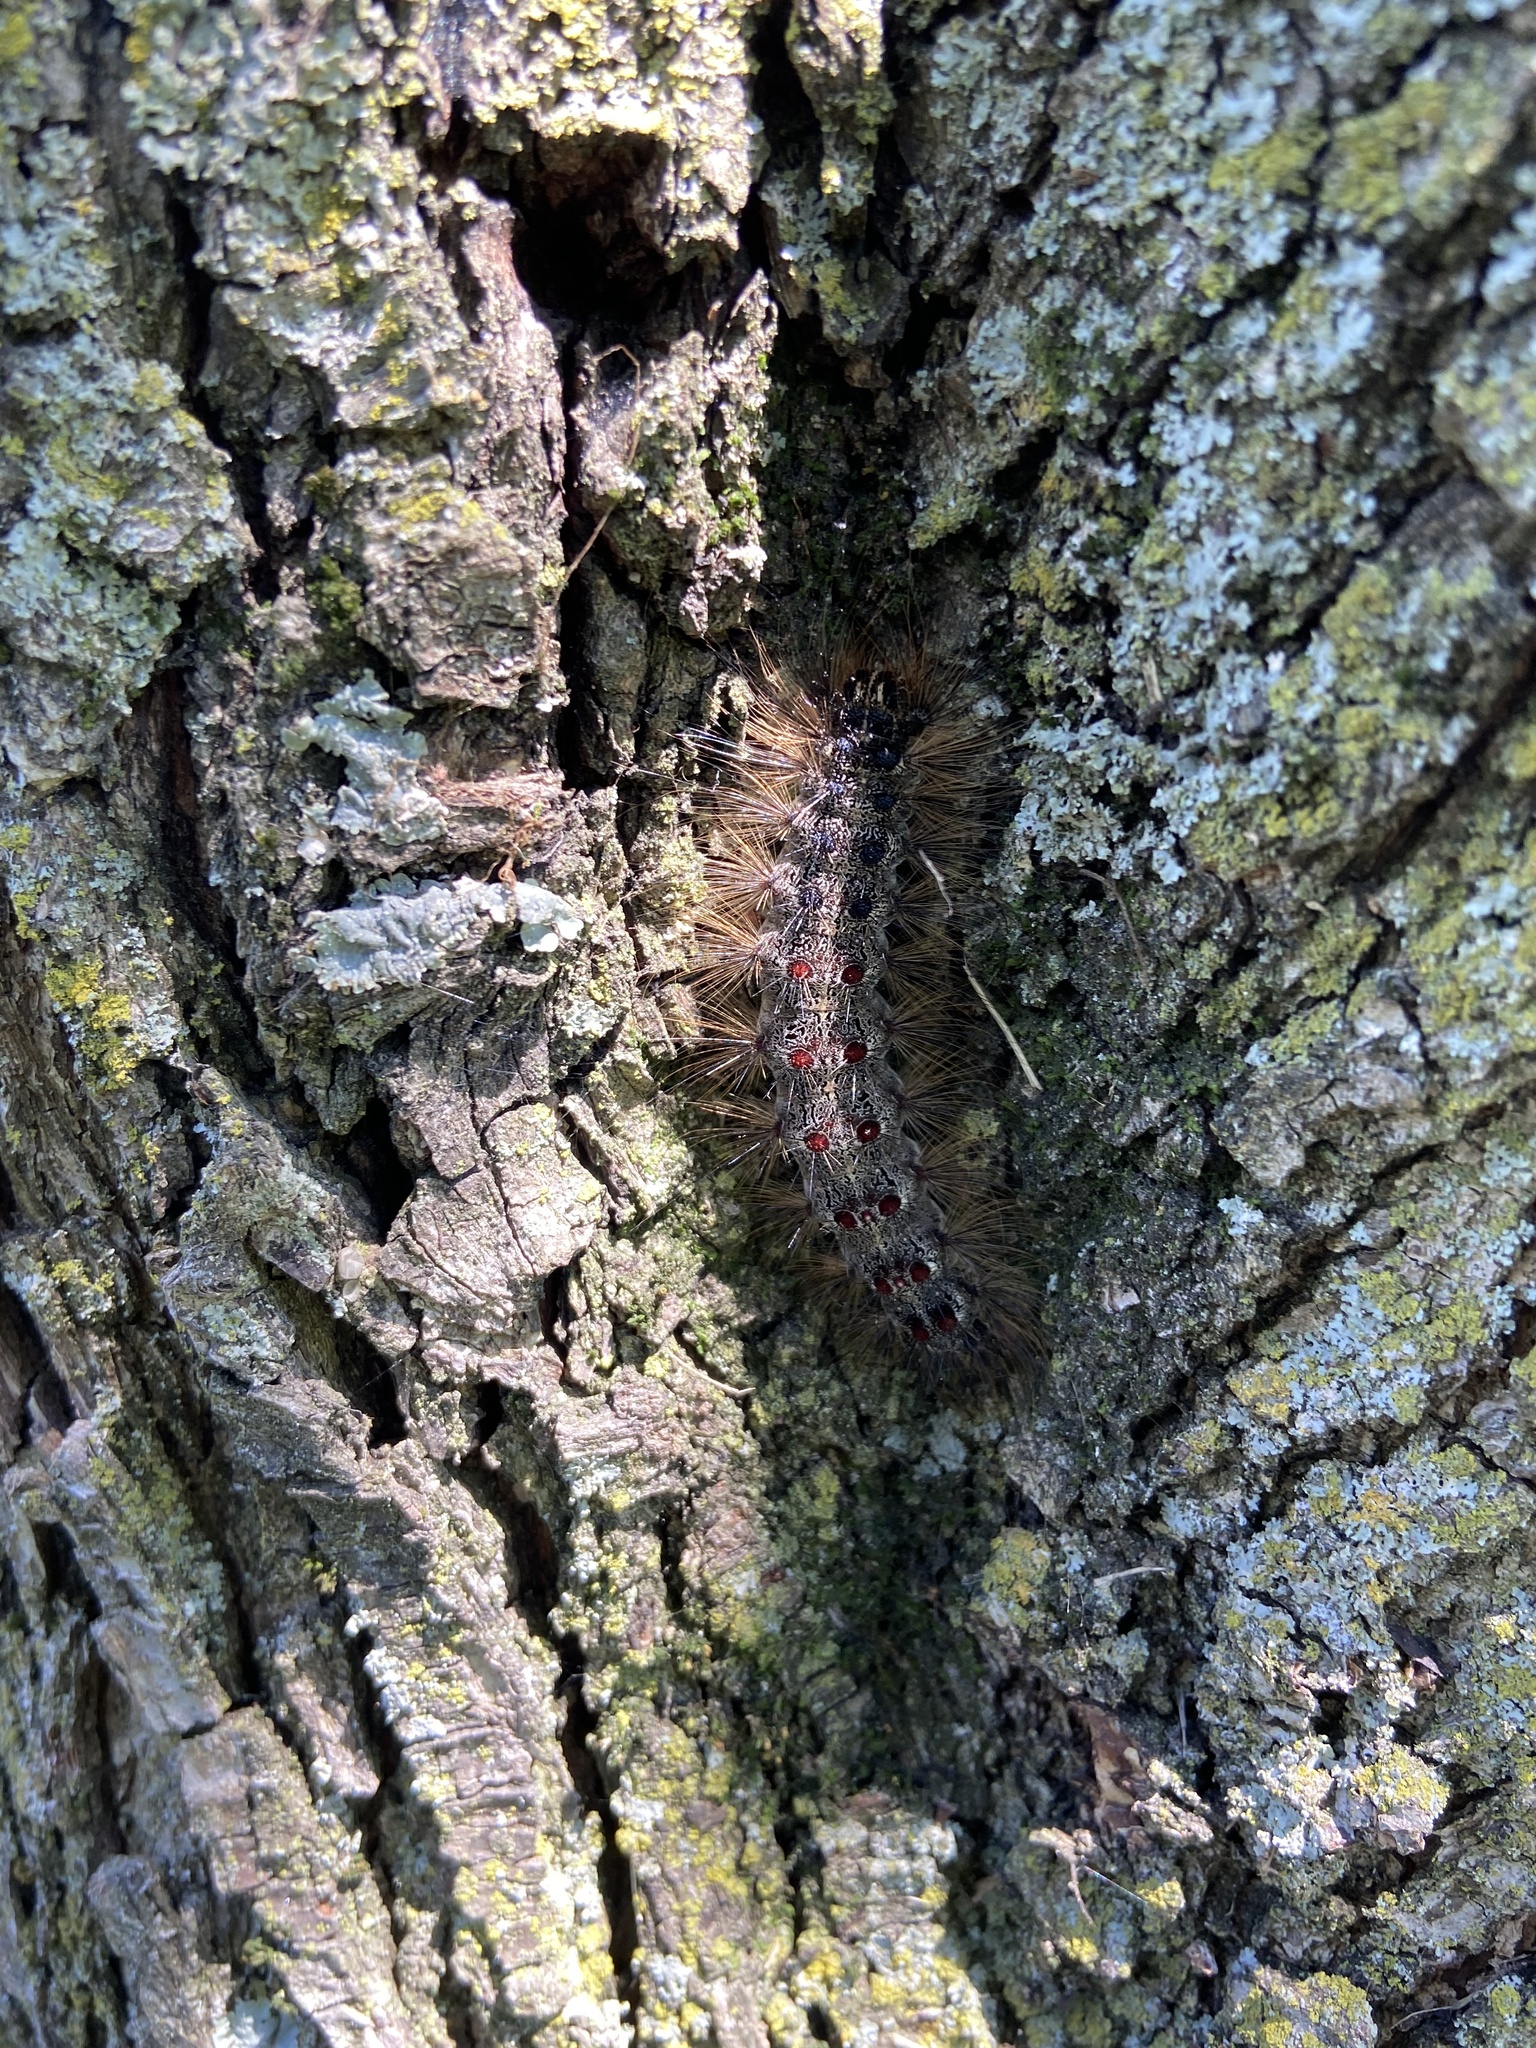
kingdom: Animalia
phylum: Arthropoda
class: Insecta
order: Lepidoptera
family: Erebidae
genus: Lymantria
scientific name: Lymantria dispar
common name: Gypsy moth
